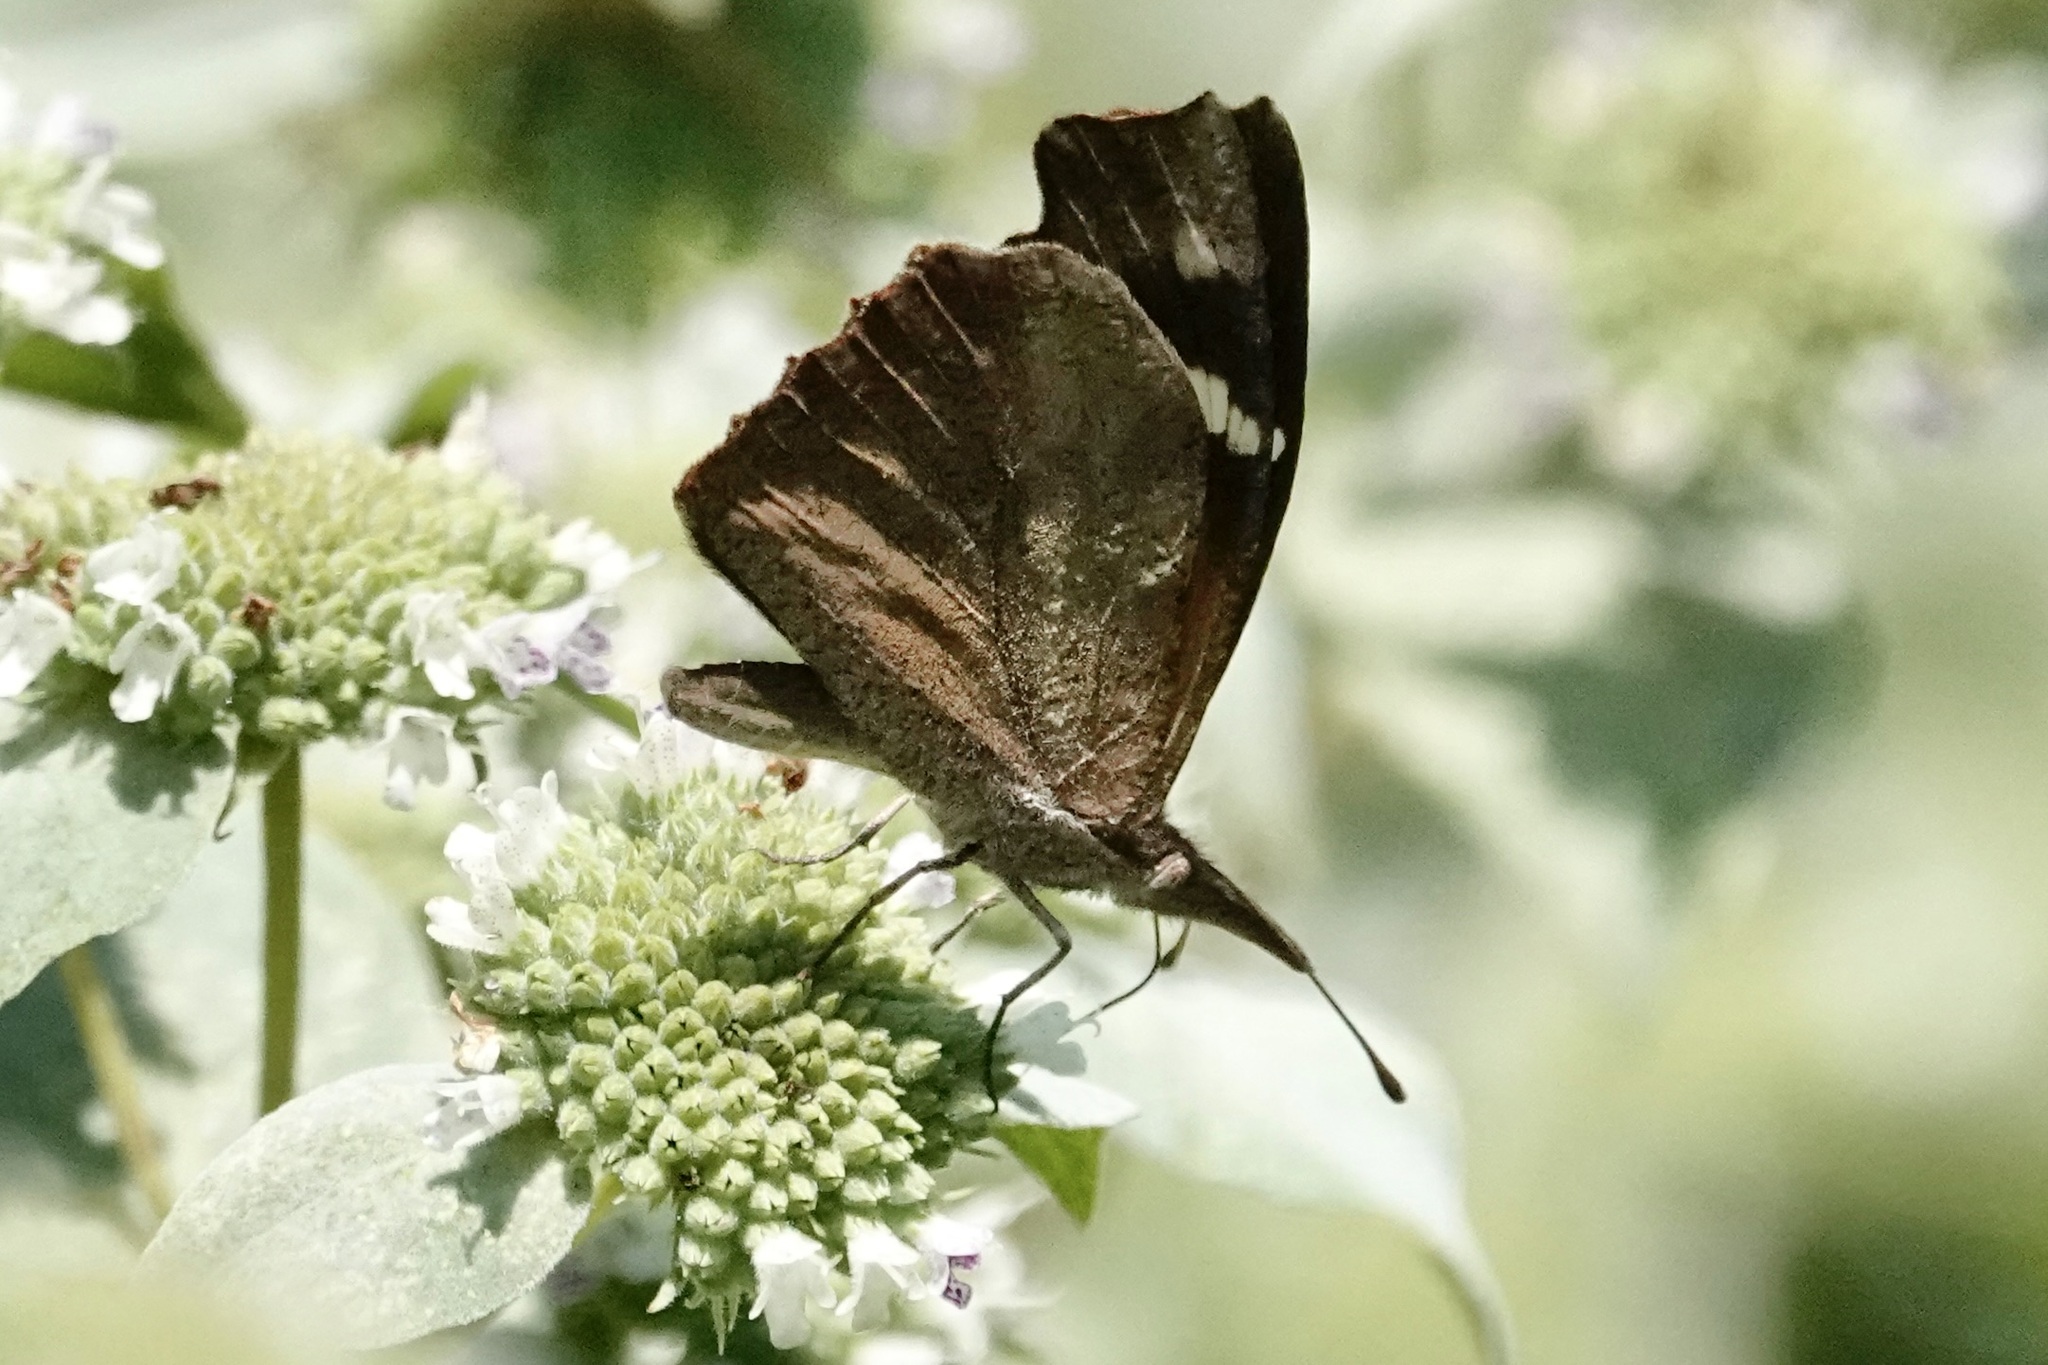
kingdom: Animalia
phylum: Arthropoda
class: Insecta
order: Lepidoptera
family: Nymphalidae
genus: Libytheana
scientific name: Libytheana carinenta
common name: American snout
